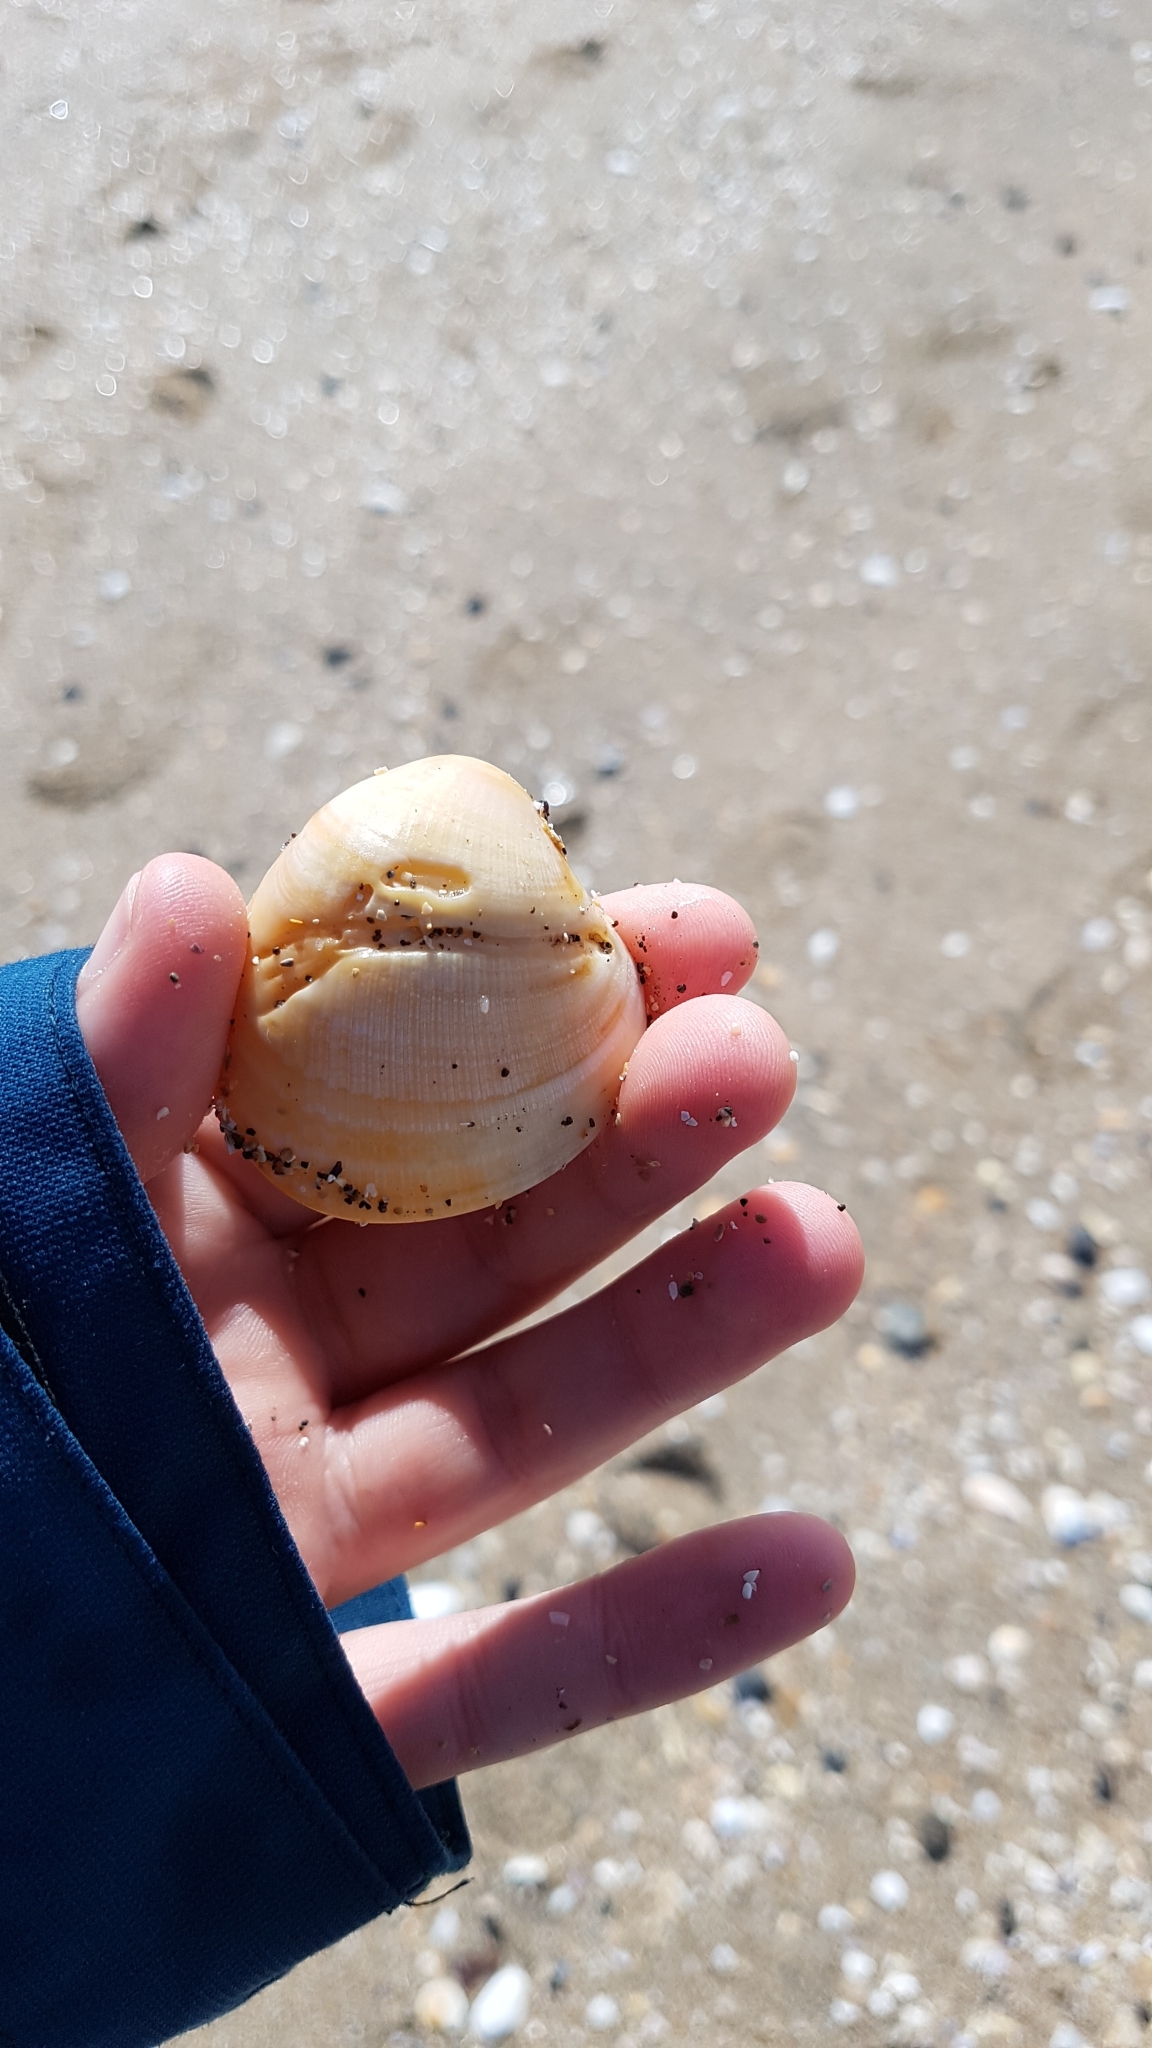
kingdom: Animalia
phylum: Mollusca
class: Bivalvia
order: Venerida
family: Veneridae
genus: Austrovenus
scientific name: Austrovenus stutchburyi
